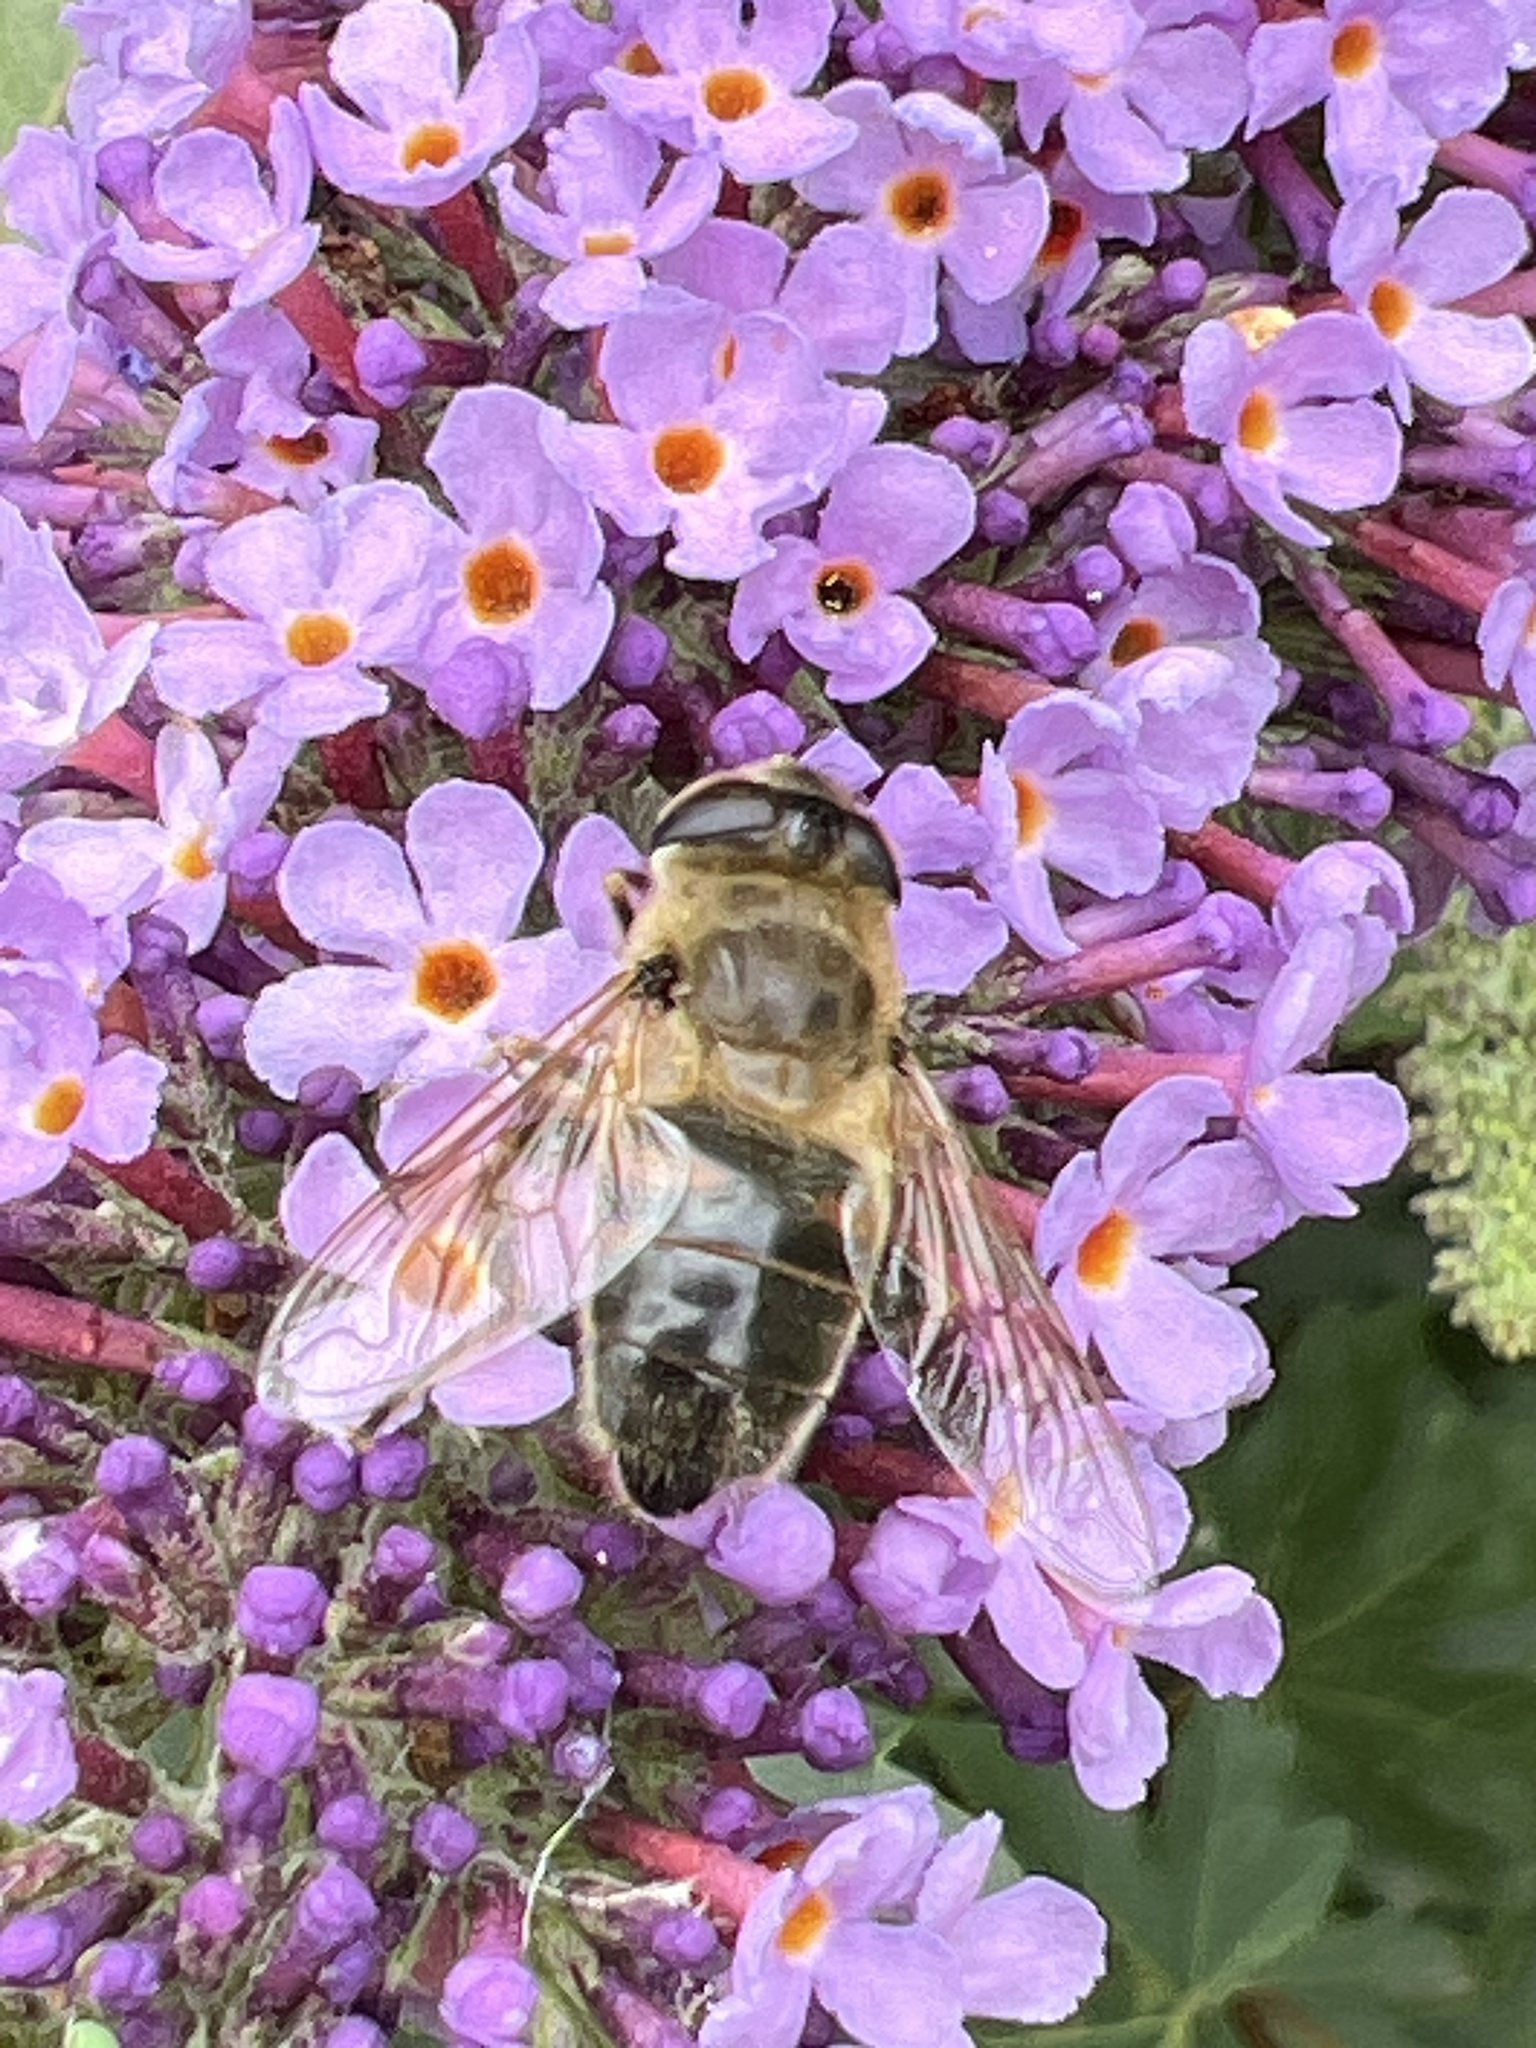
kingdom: Animalia
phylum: Arthropoda
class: Insecta
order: Diptera
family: Syrphidae
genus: Eristalis
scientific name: Eristalis tenax
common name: Drone fly
